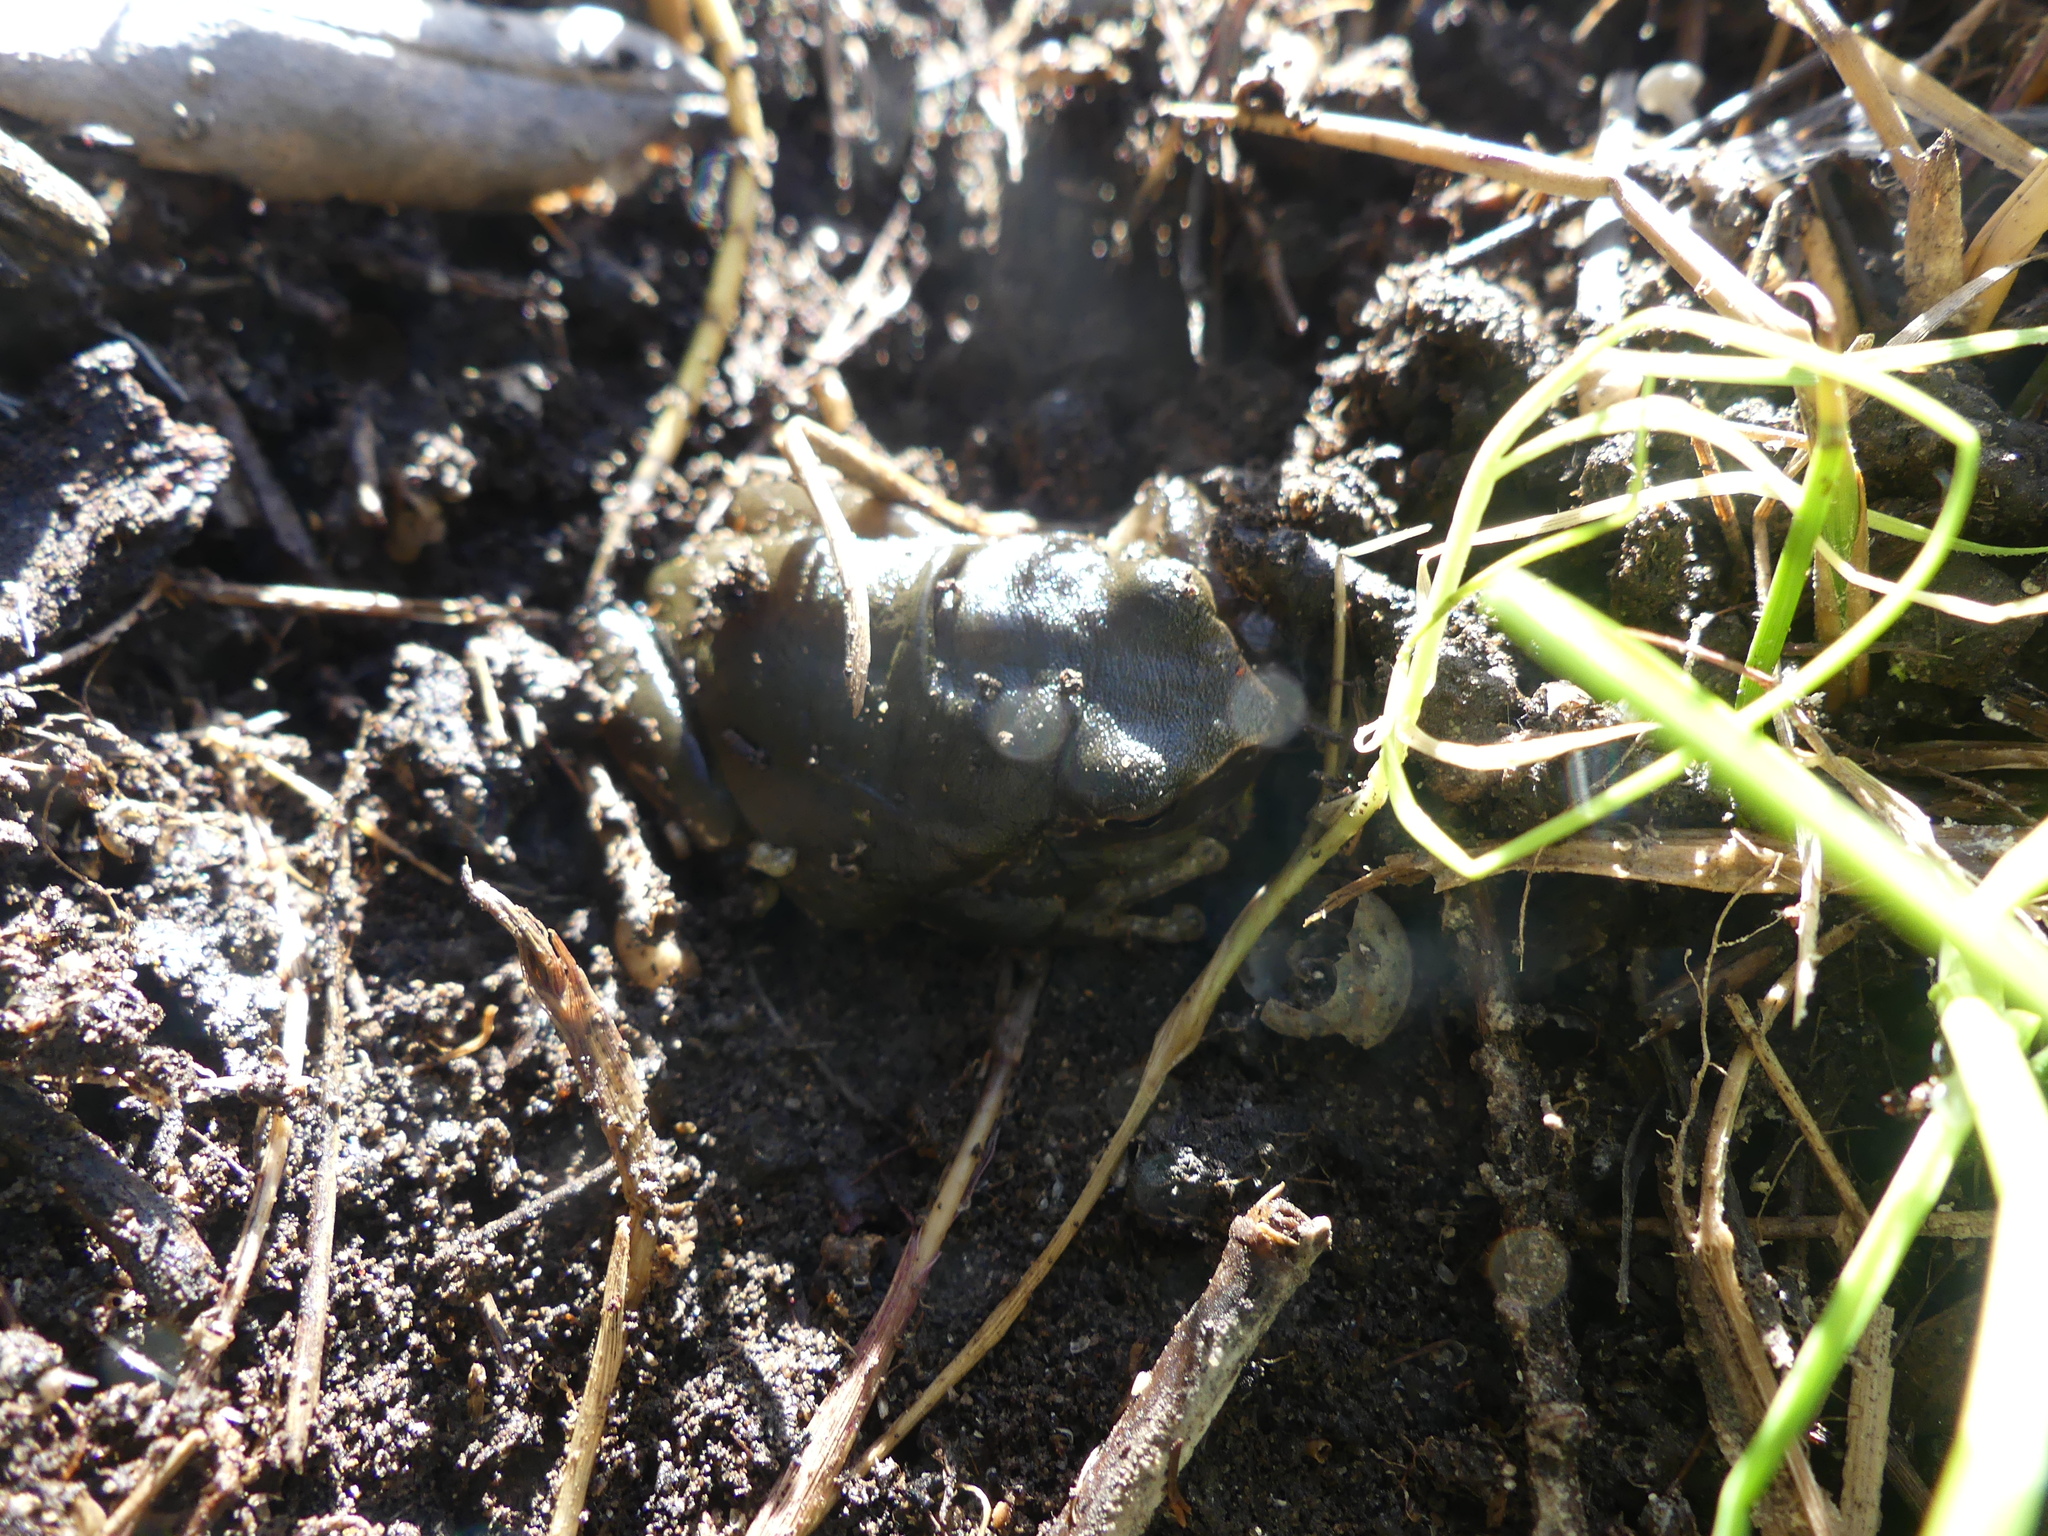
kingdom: Animalia
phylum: Chordata
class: Amphibia
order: Anura
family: Hylidae
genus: Hyla
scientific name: Hyla meridionalis
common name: Stripeless tree frog
